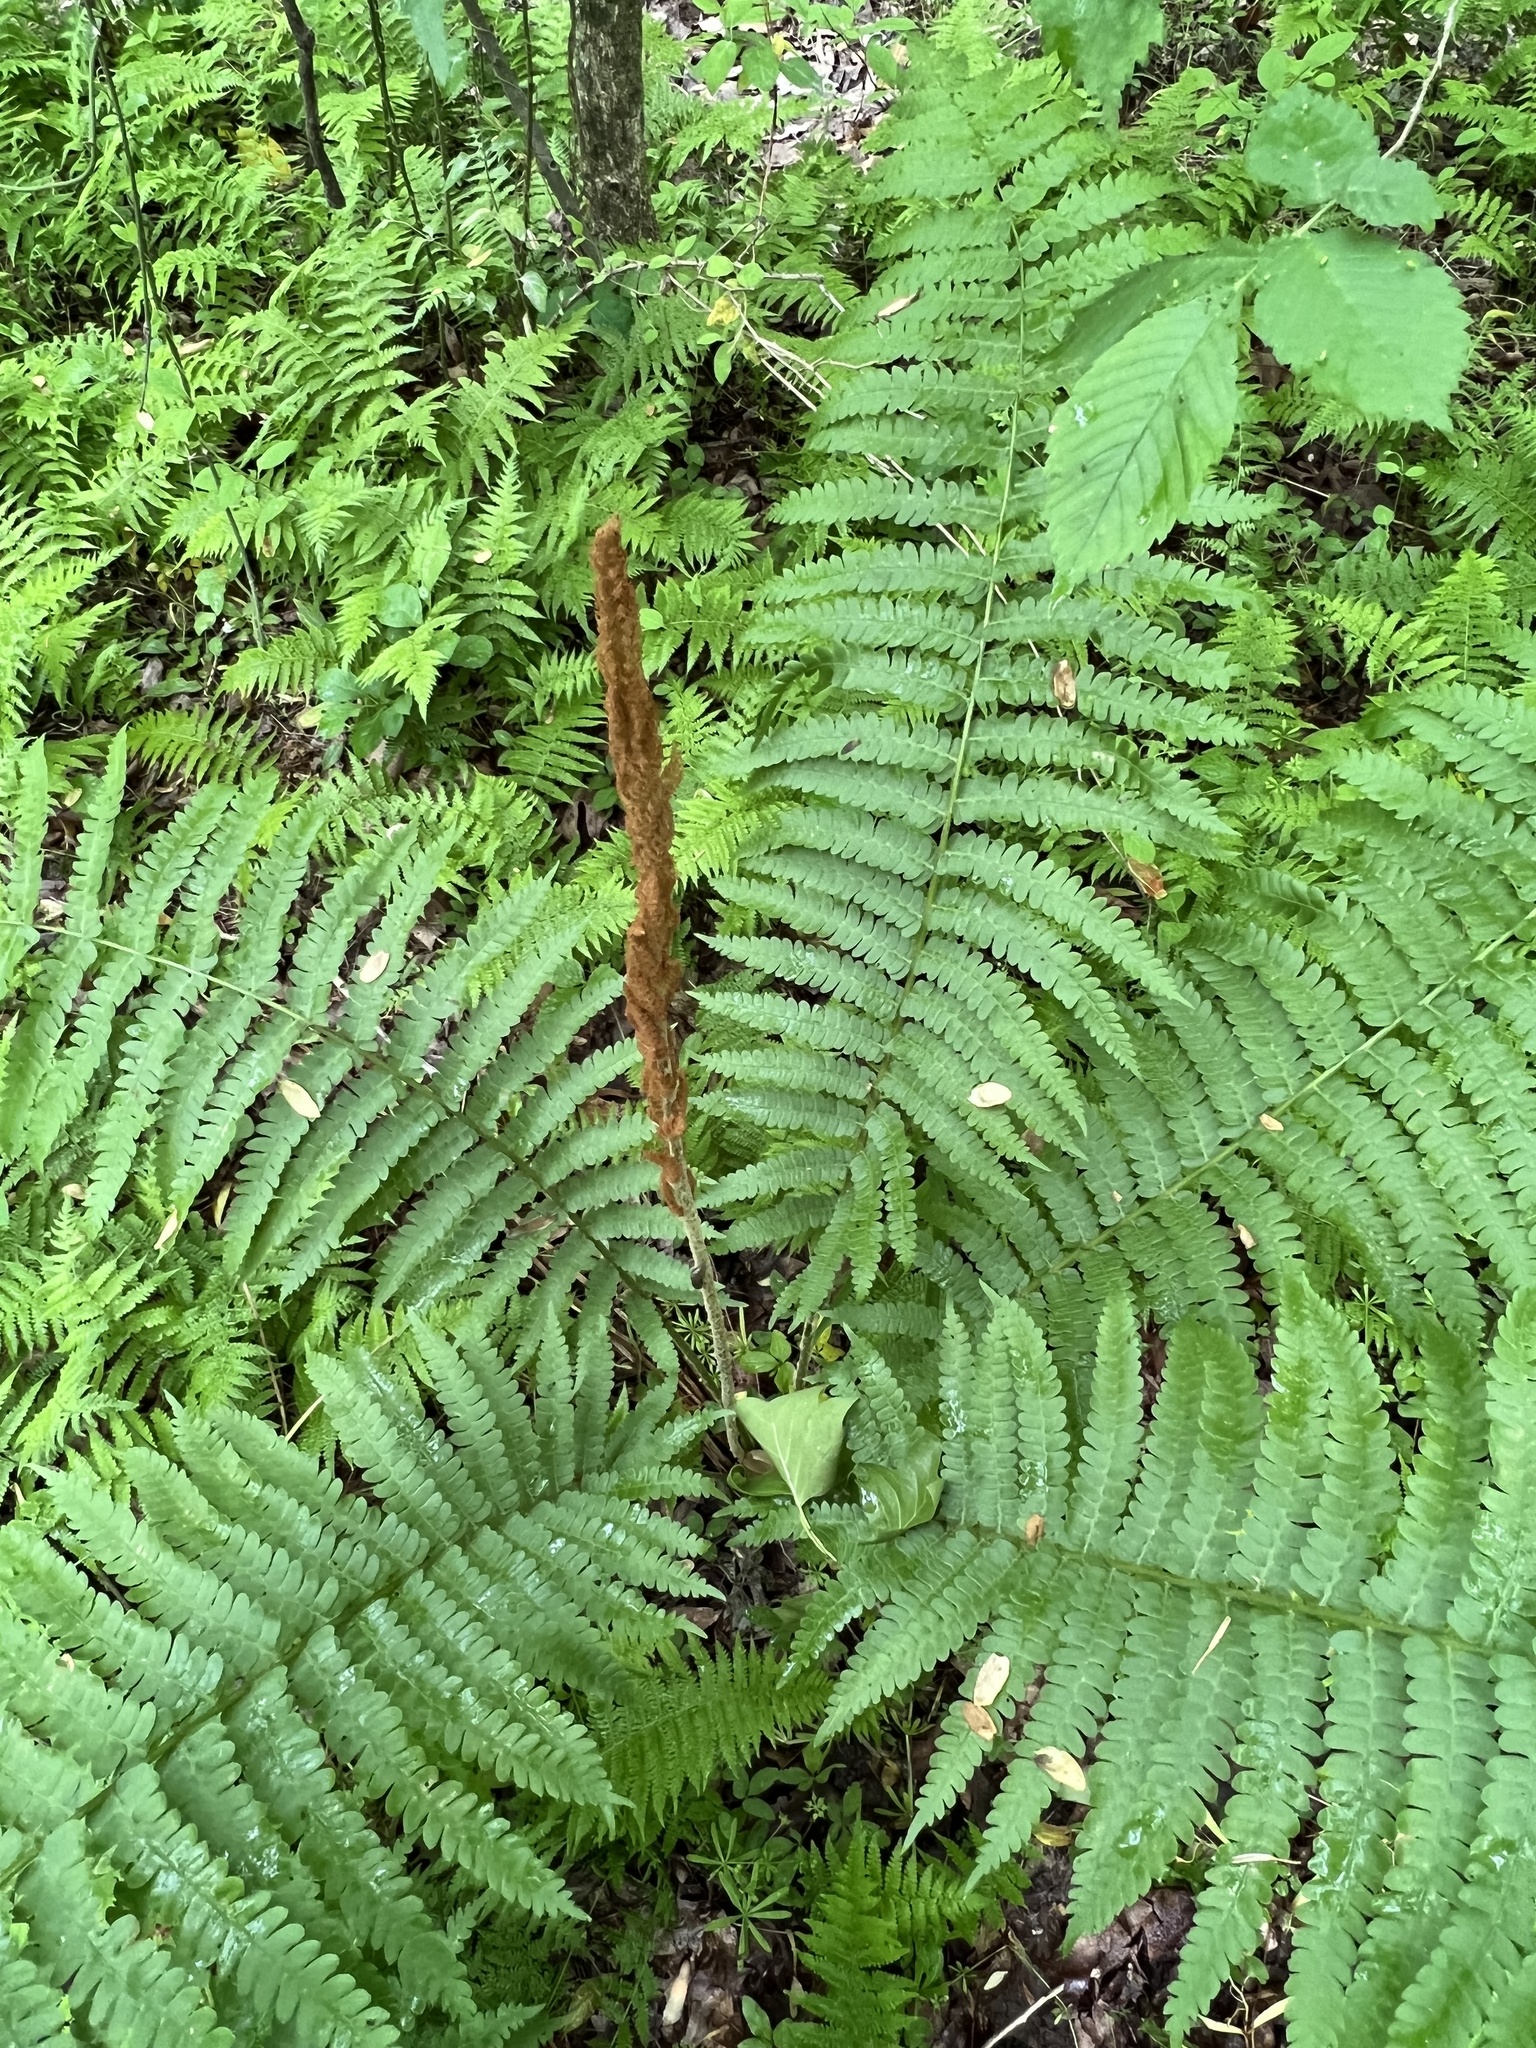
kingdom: Plantae
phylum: Tracheophyta
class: Polypodiopsida
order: Osmundales
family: Osmundaceae
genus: Osmundastrum
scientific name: Osmundastrum cinnamomeum
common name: Cinnamon fern
